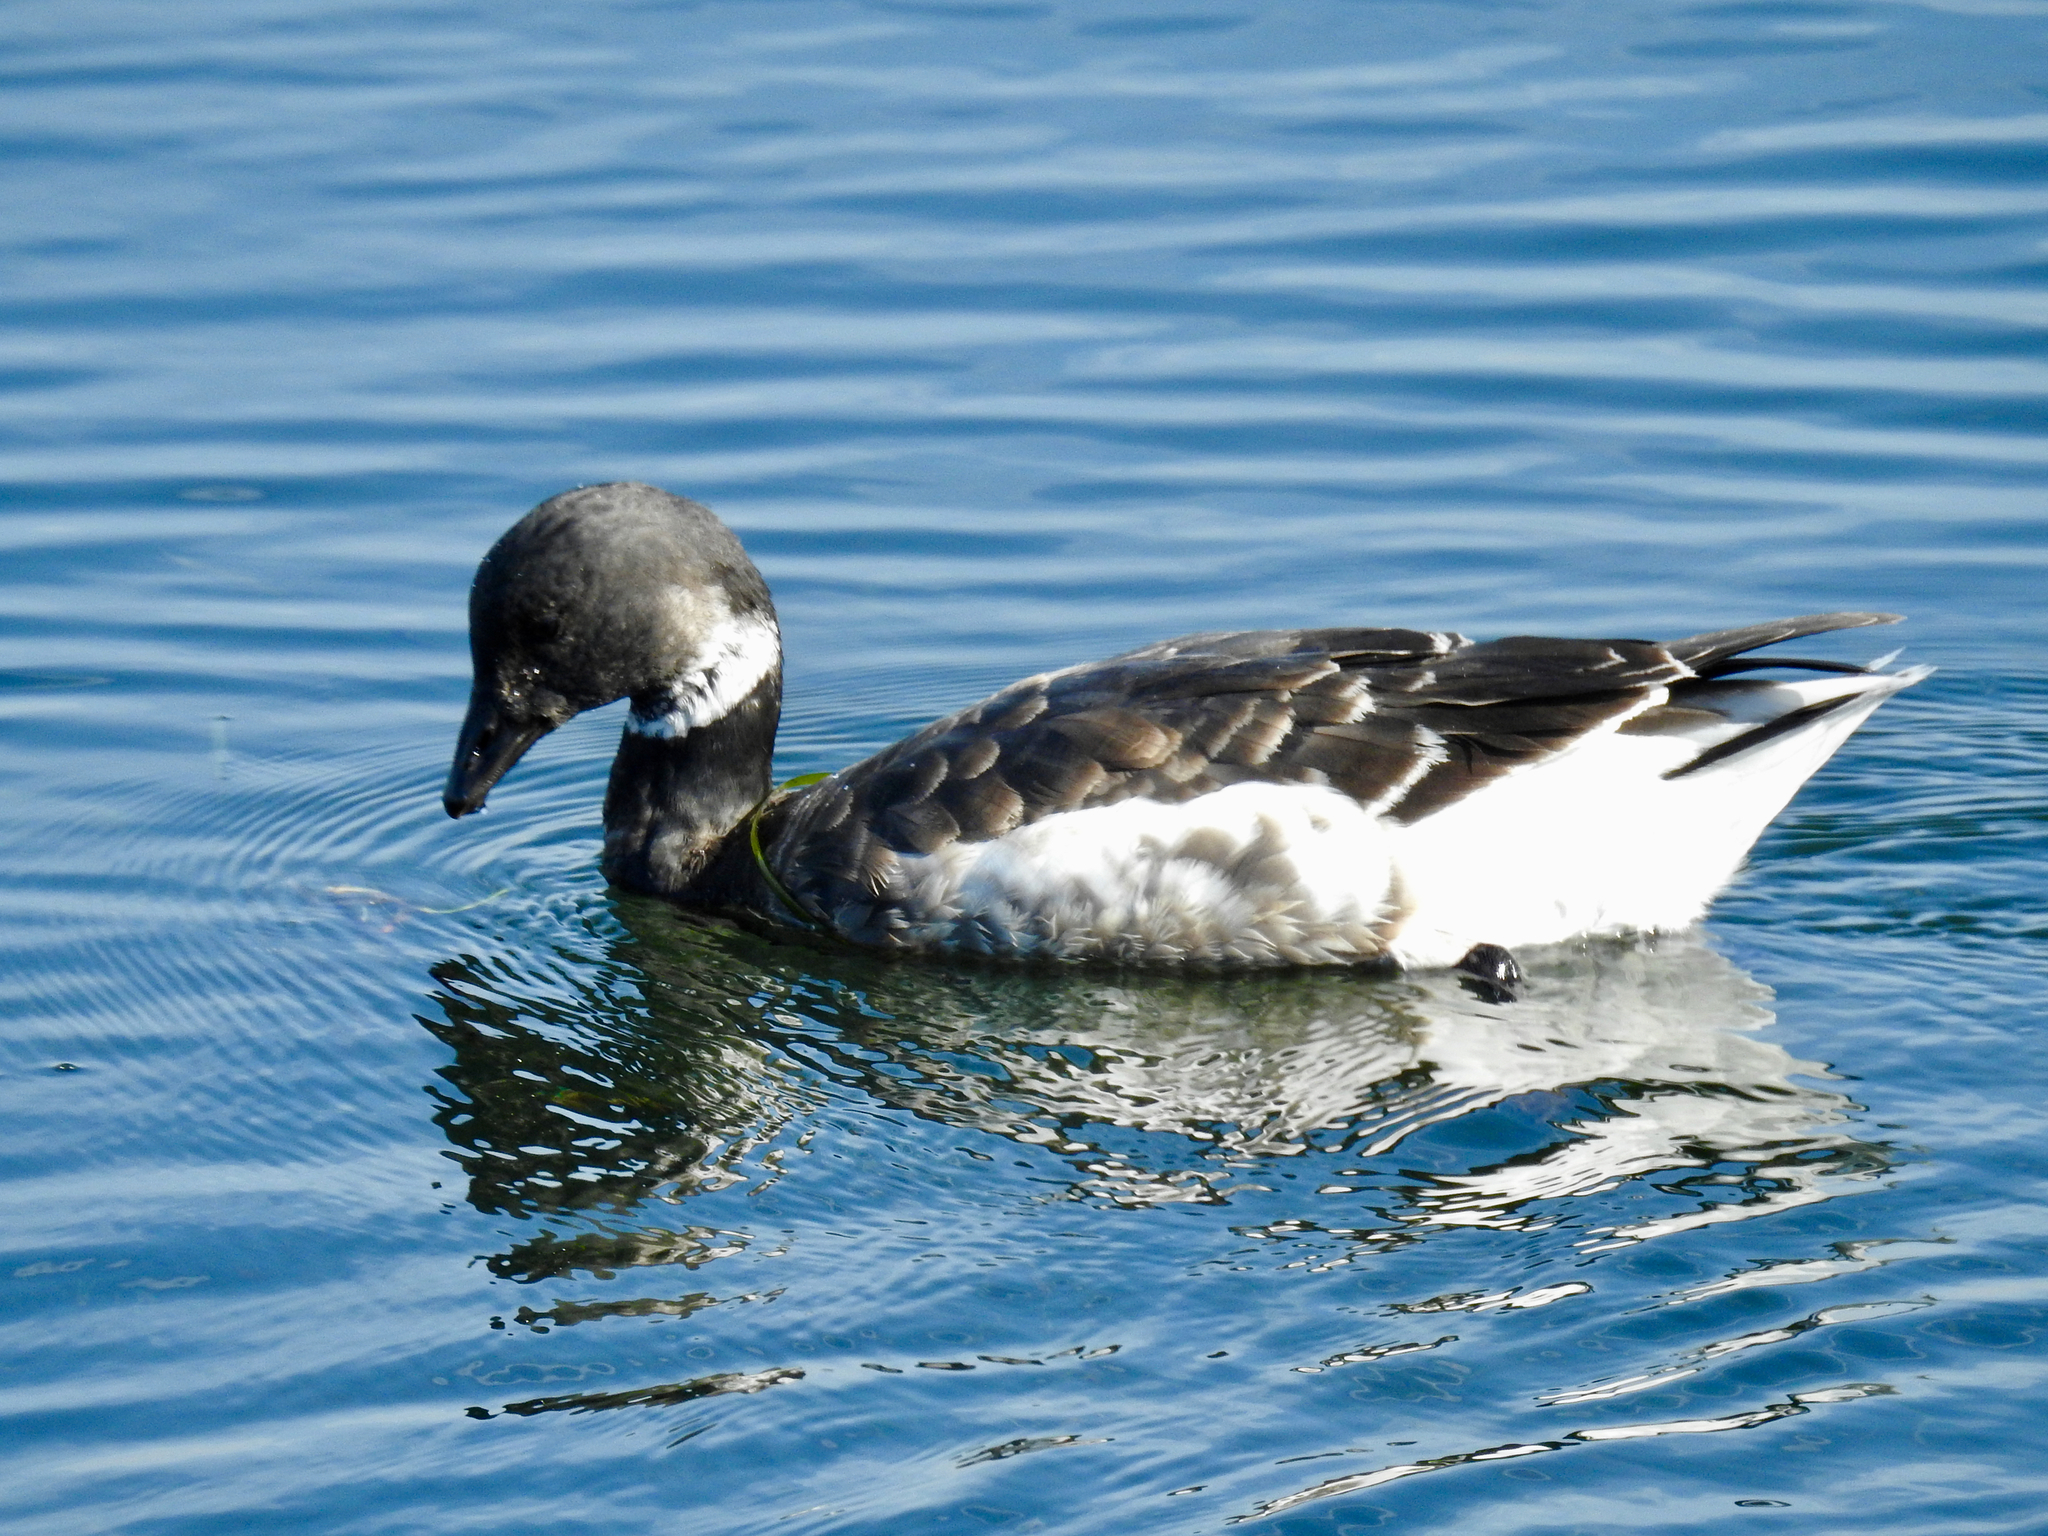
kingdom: Animalia
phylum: Chordata
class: Aves
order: Anseriformes
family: Anatidae
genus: Branta
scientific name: Branta bernicla
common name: Brant goose
